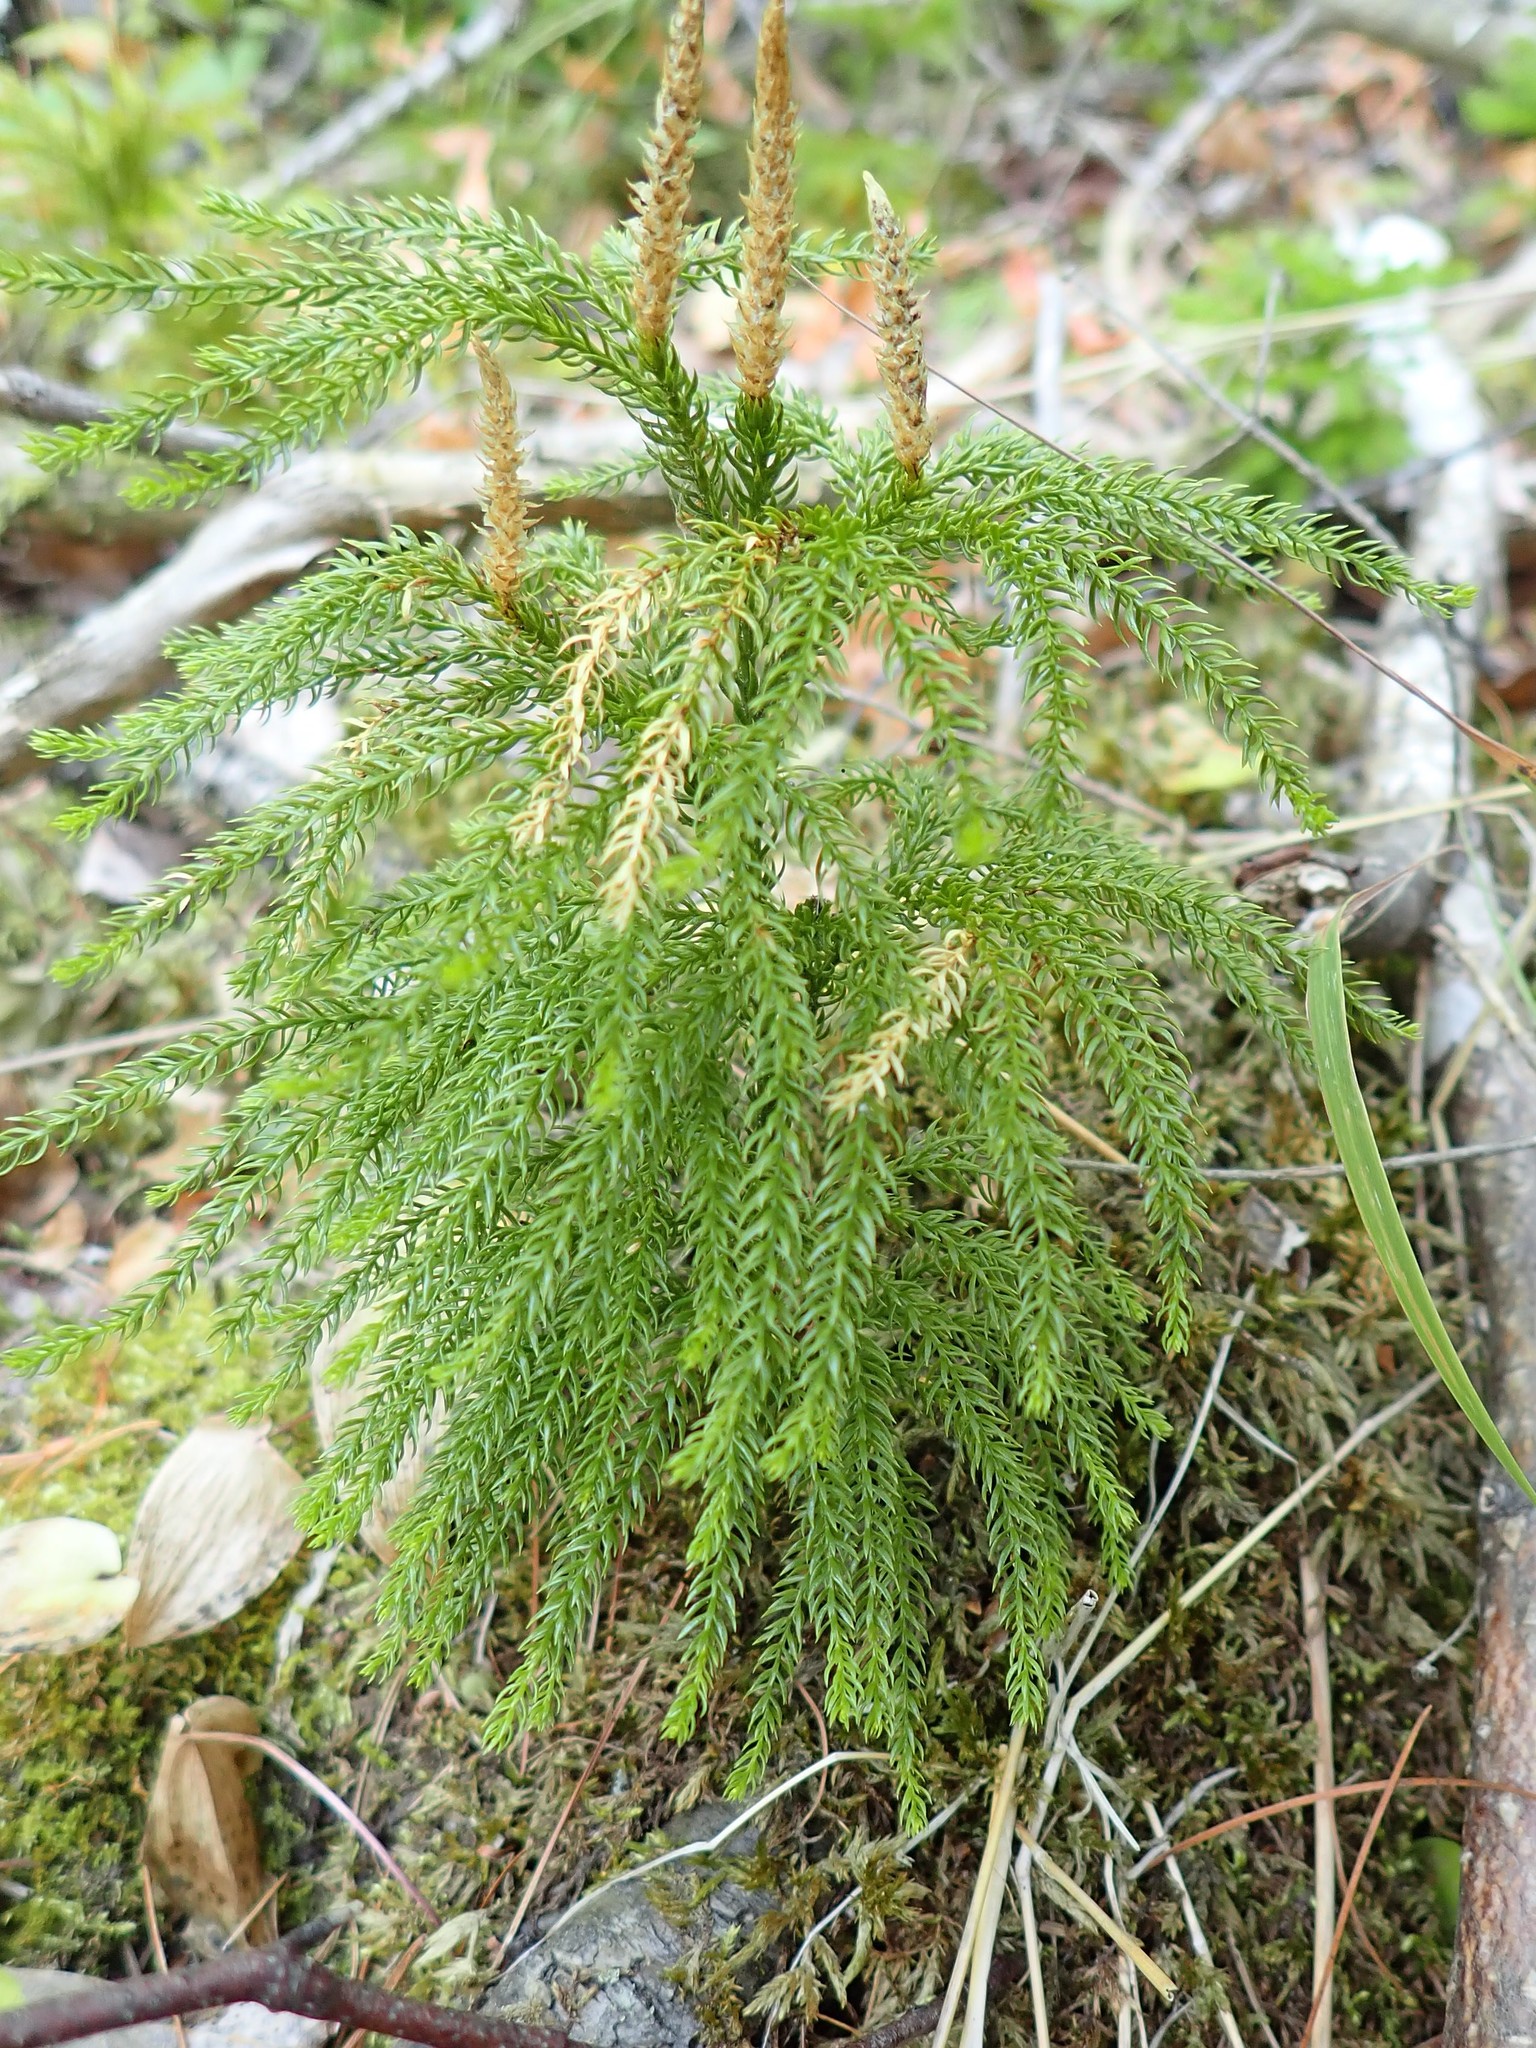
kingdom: Plantae
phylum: Tracheophyta
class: Lycopodiopsida
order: Lycopodiales
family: Lycopodiaceae
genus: Dendrolycopodium
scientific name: Dendrolycopodium dendroideum
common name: Northern tree-clubmoss
